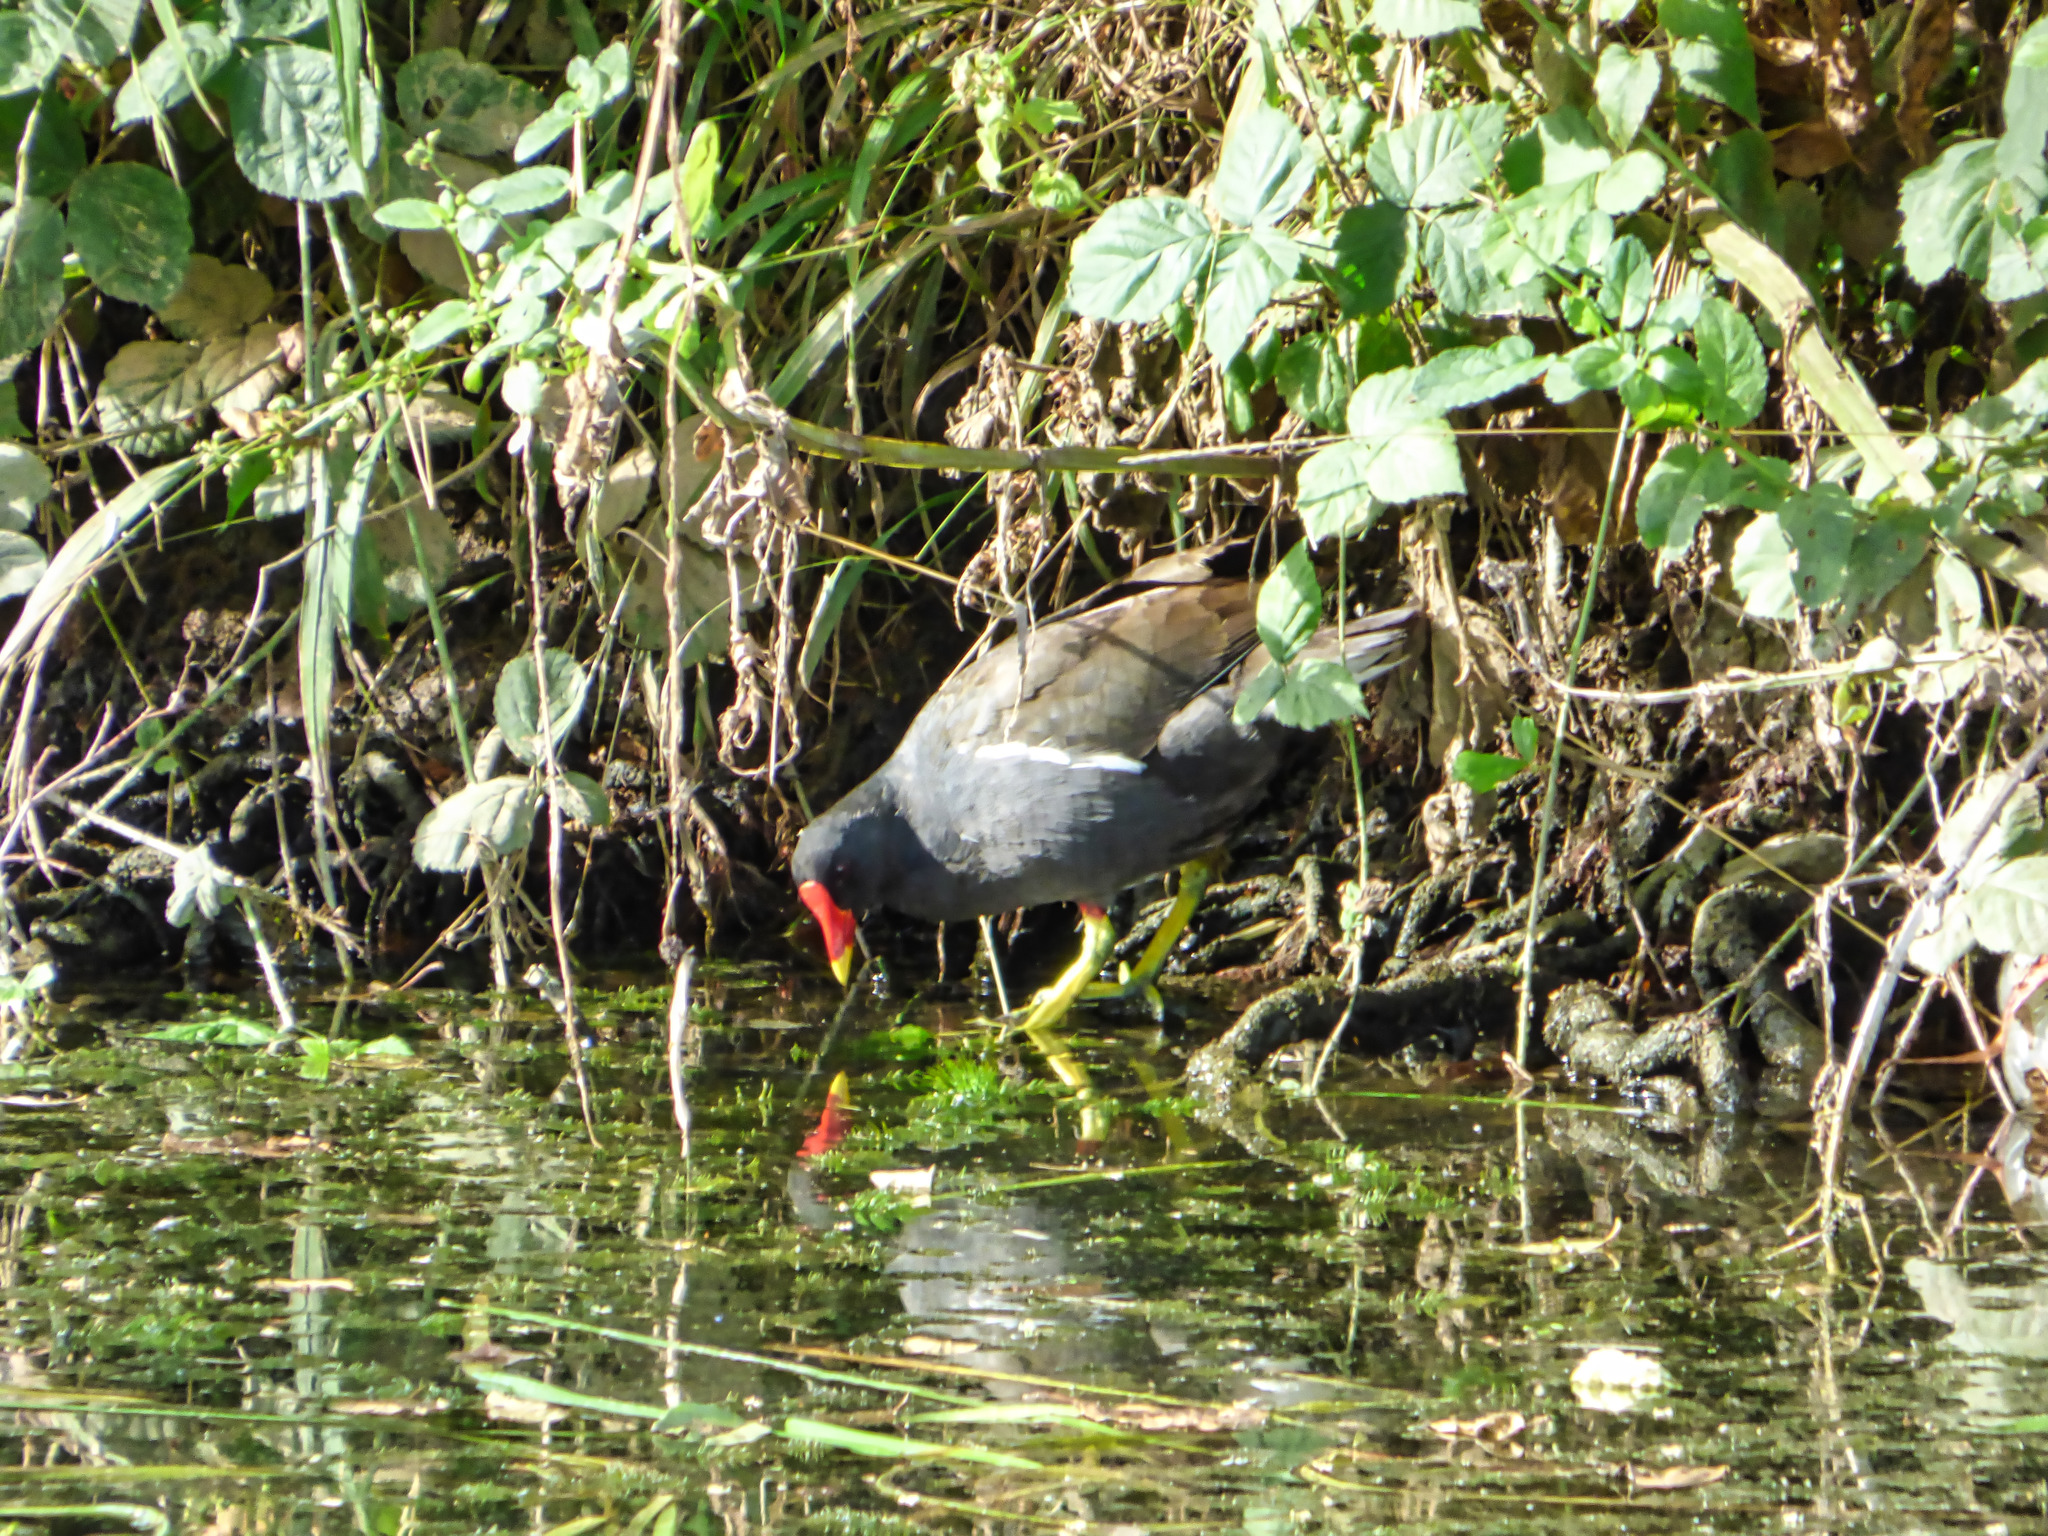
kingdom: Animalia
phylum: Chordata
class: Aves
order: Gruiformes
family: Rallidae
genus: Gallinula
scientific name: Gallinula chloropus
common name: Common moorhen
